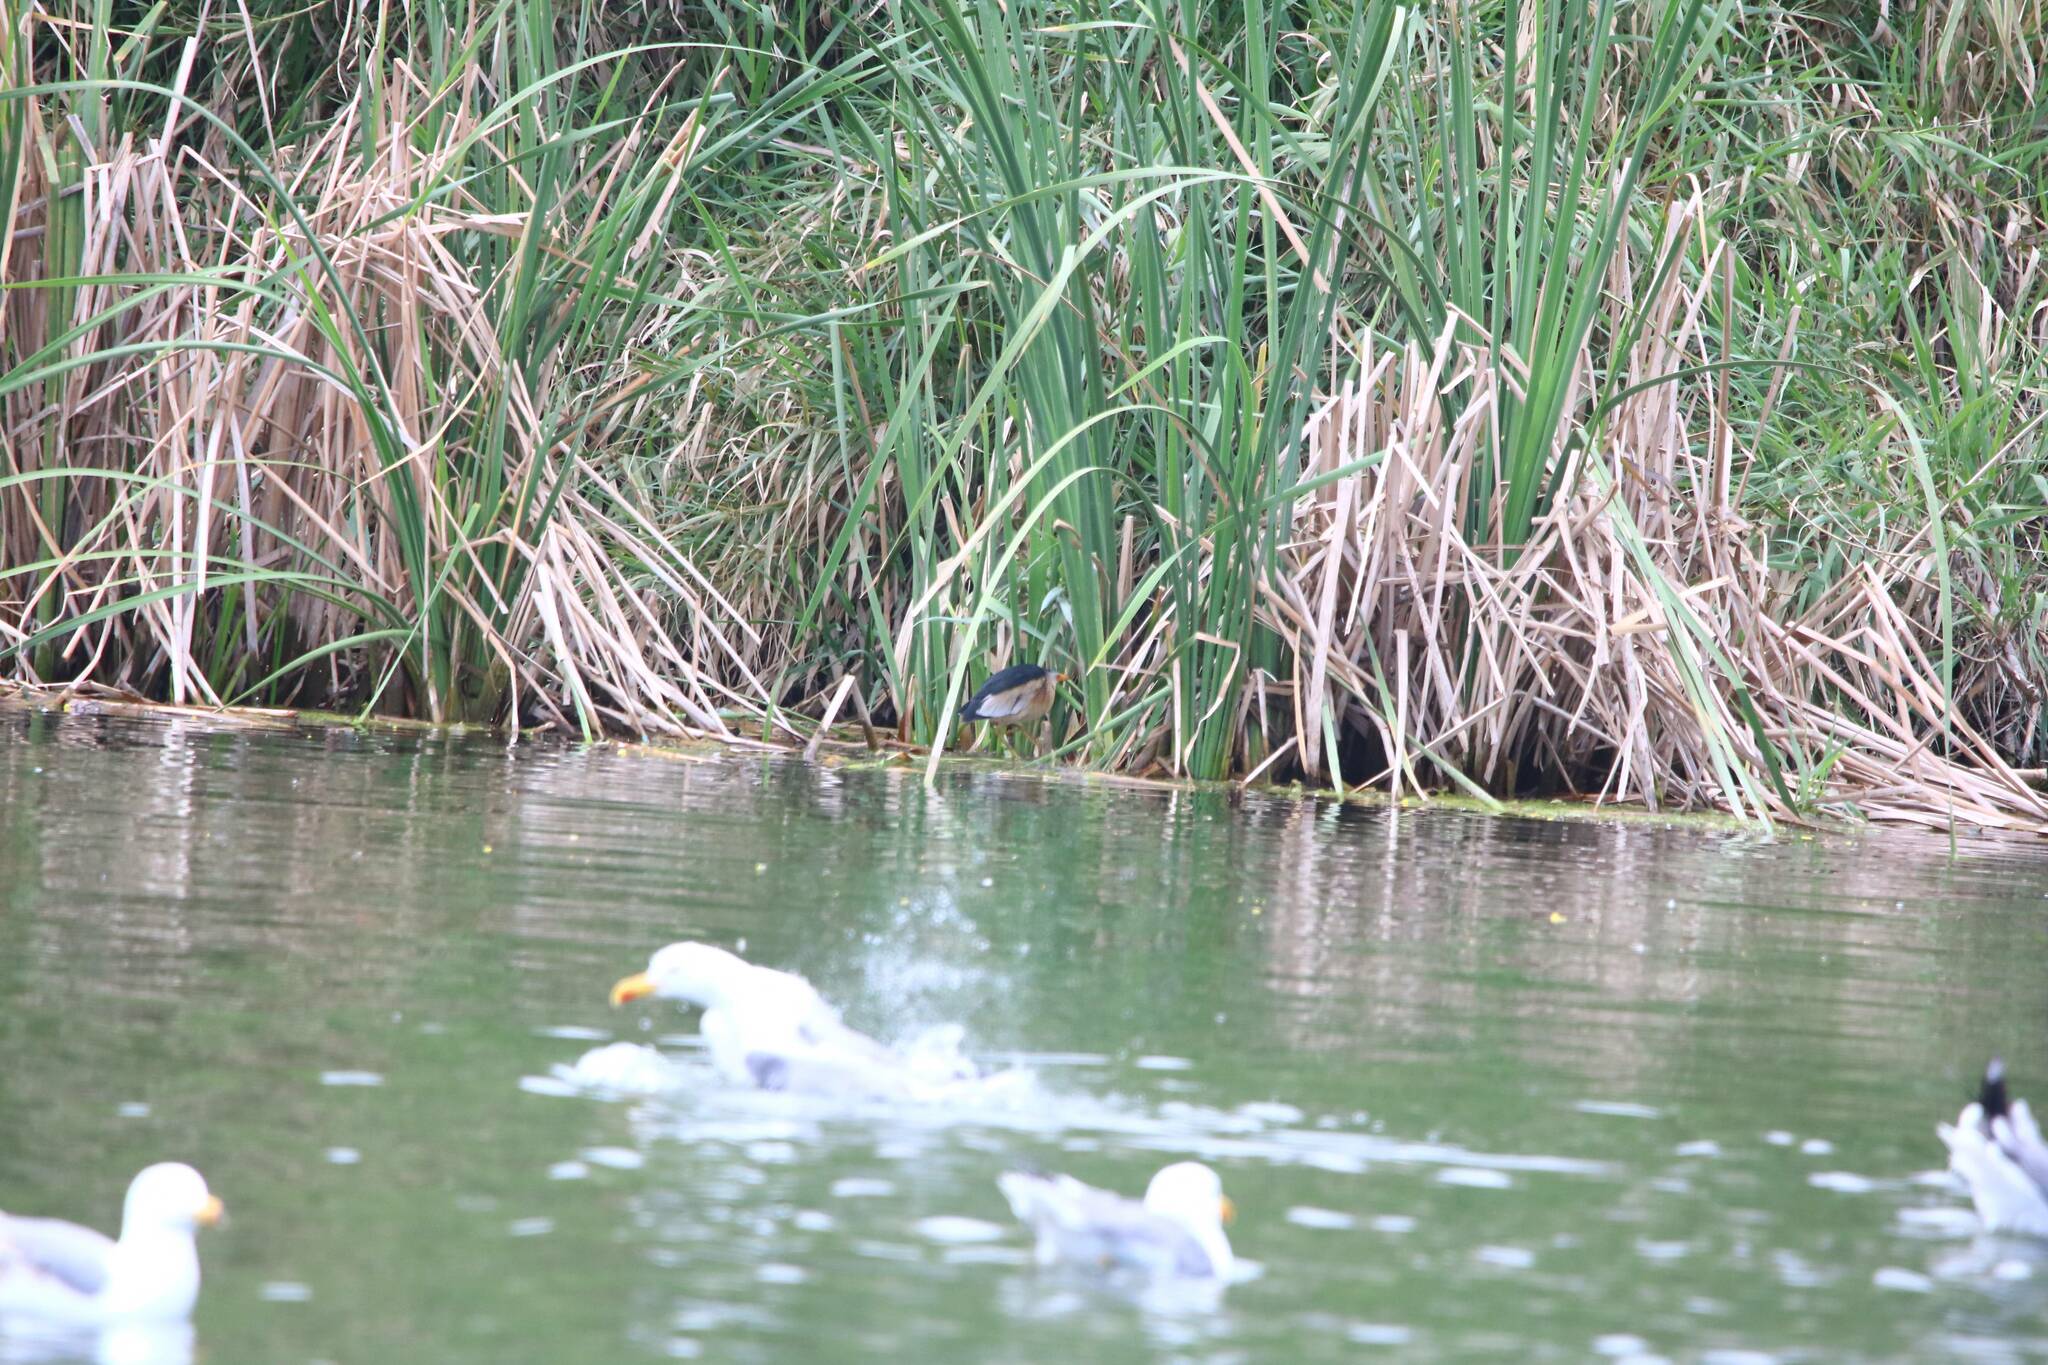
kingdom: Animalia
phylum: Chordata
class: Aves
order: Charadriiformes
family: Laridae
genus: Larus
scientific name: Larus michahellis
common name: Yellow-legged gull
